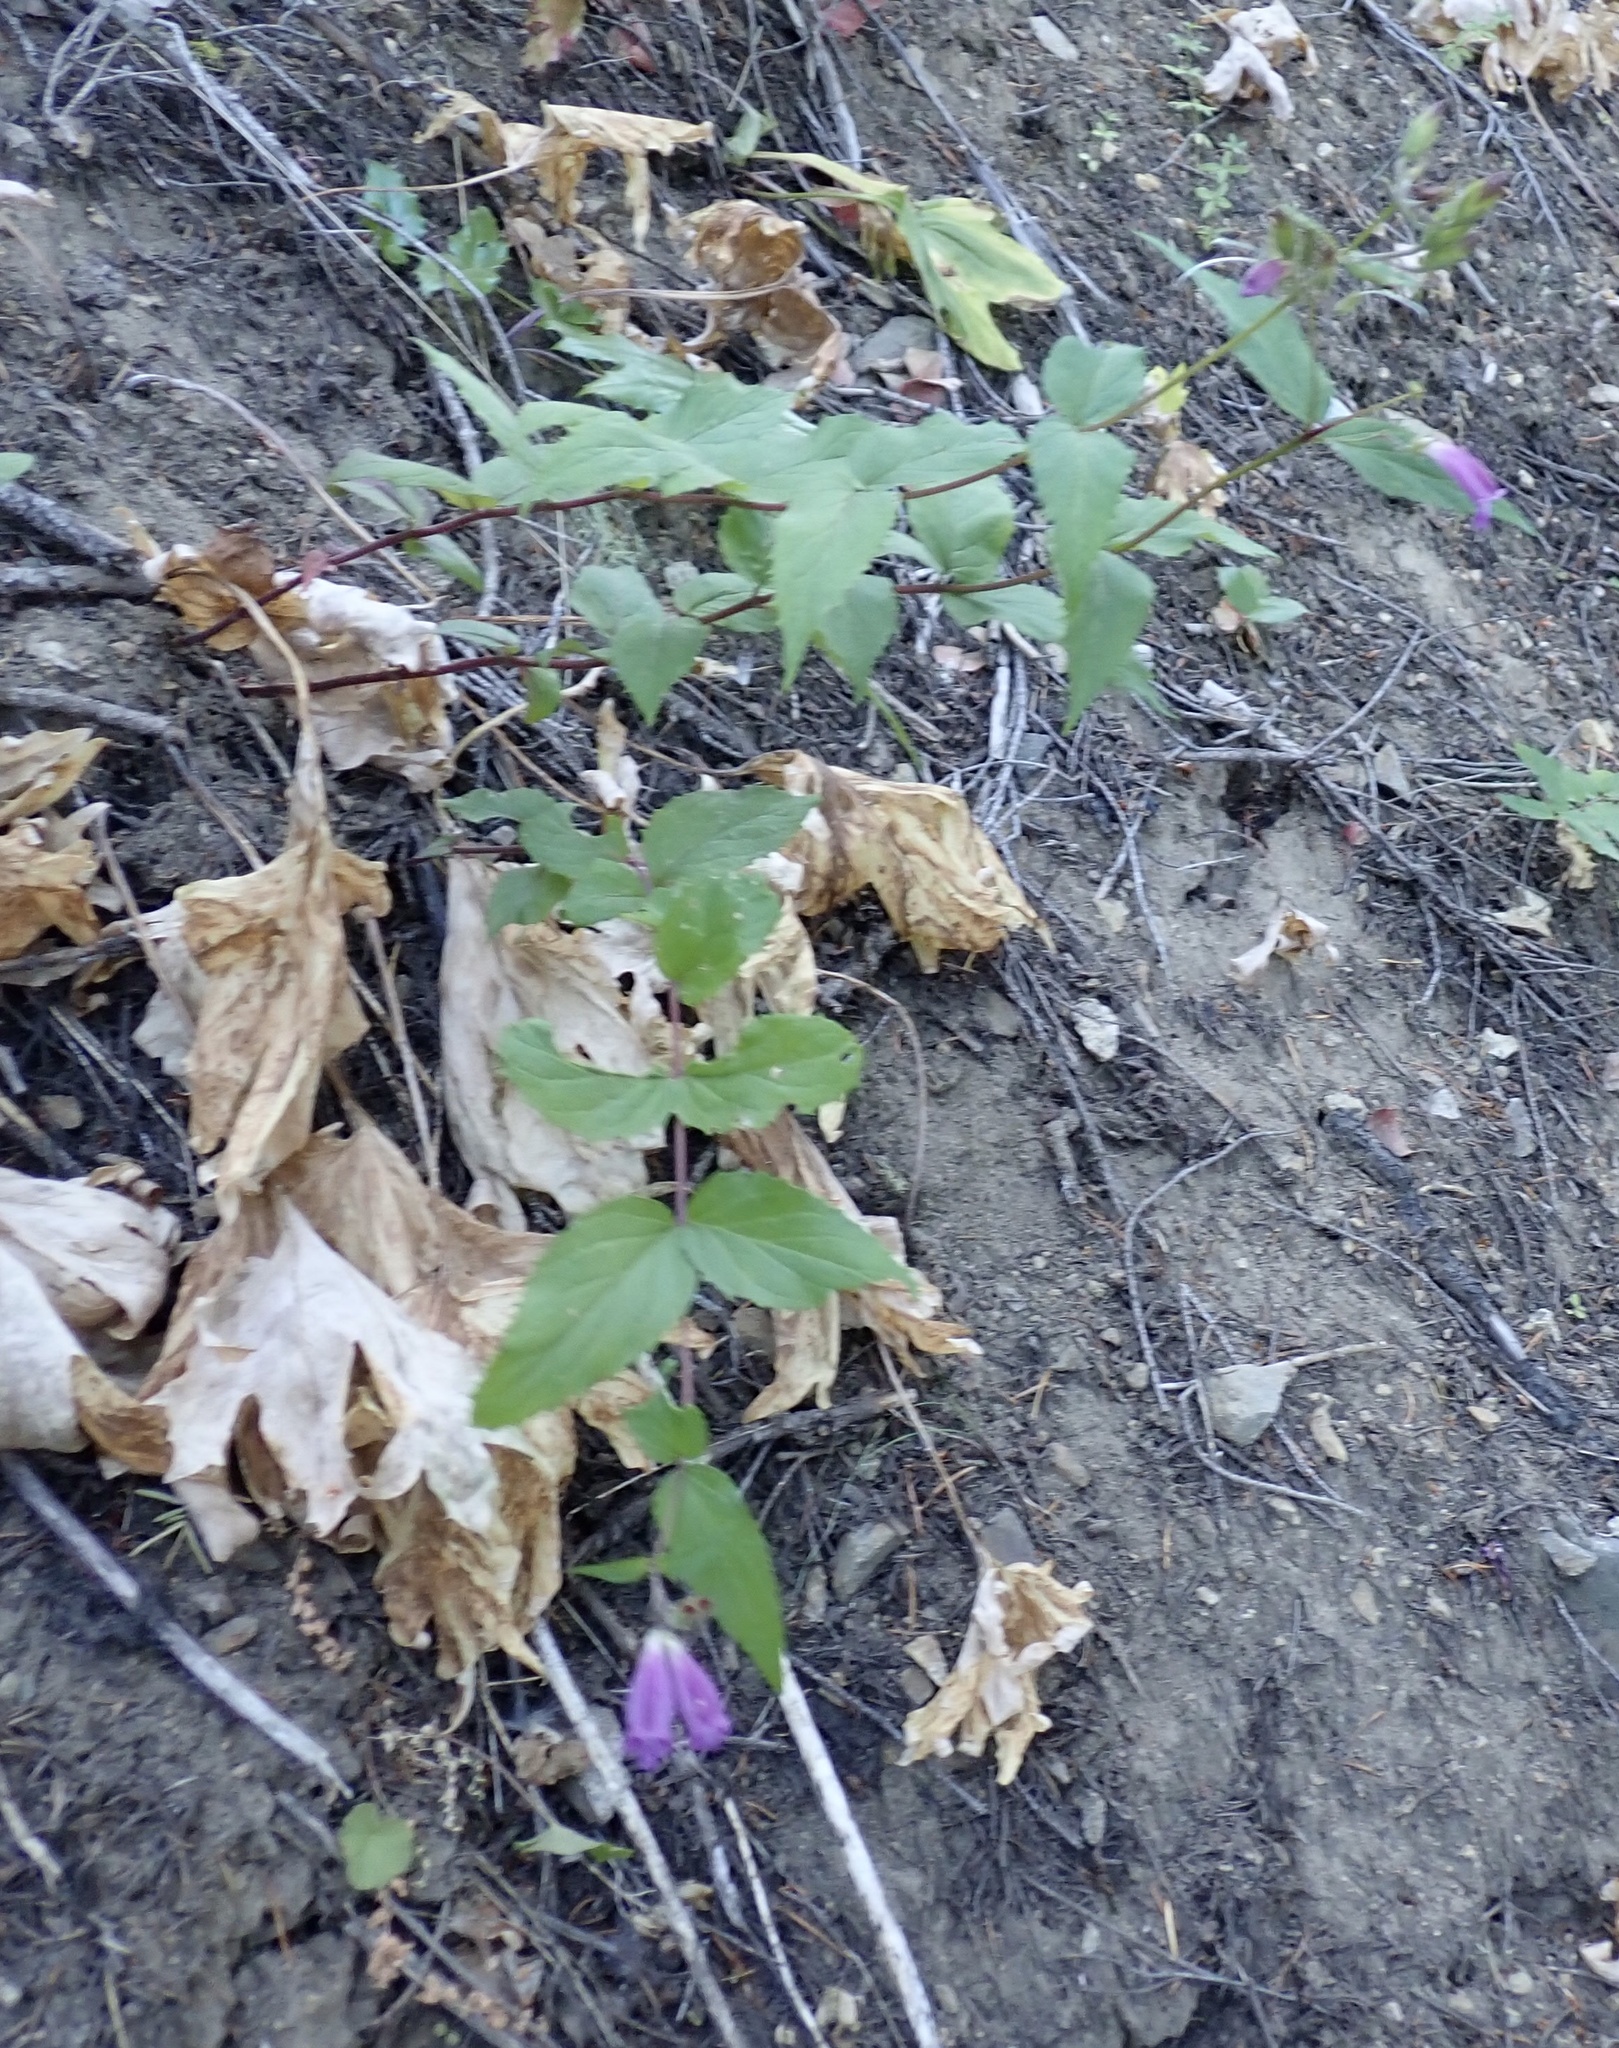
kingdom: Plantae
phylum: Tracheophyta
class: Magnoliopsida
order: Lamiales
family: Plantaginaceae
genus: Nothochelone
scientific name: Nothochelone nemorosa
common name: Woodland beardtongue
